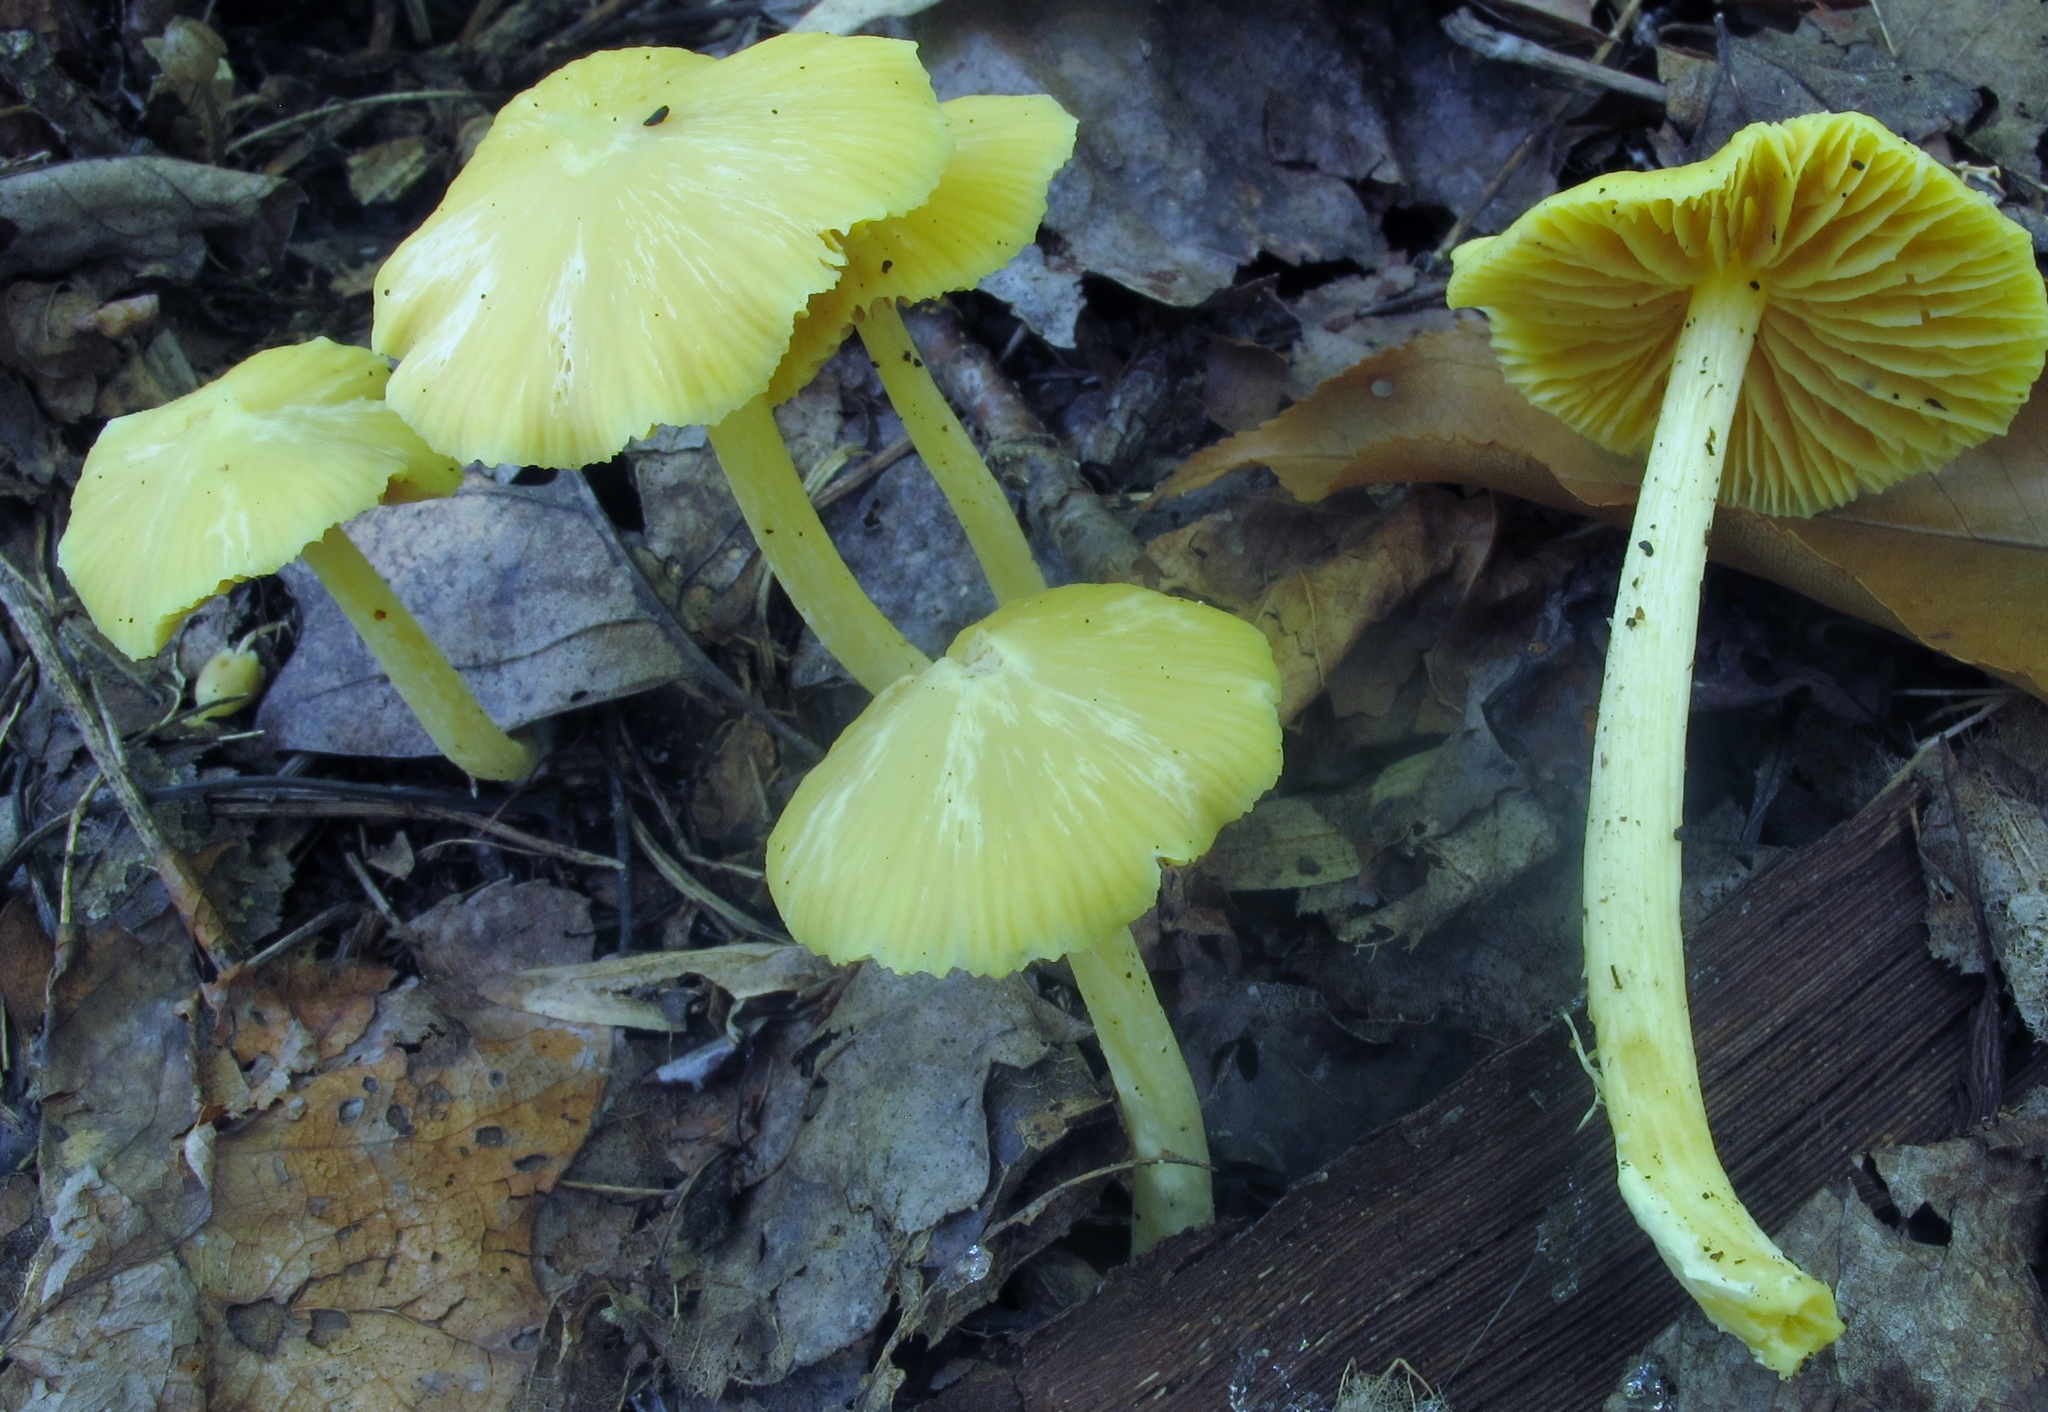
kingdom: Fungi
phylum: Basidiomycota
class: Agaricomycetes
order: Agaricales
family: Entolomataceae
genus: Entoloma
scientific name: Entoloma murrayi
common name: Yellow unicorn entoloma
